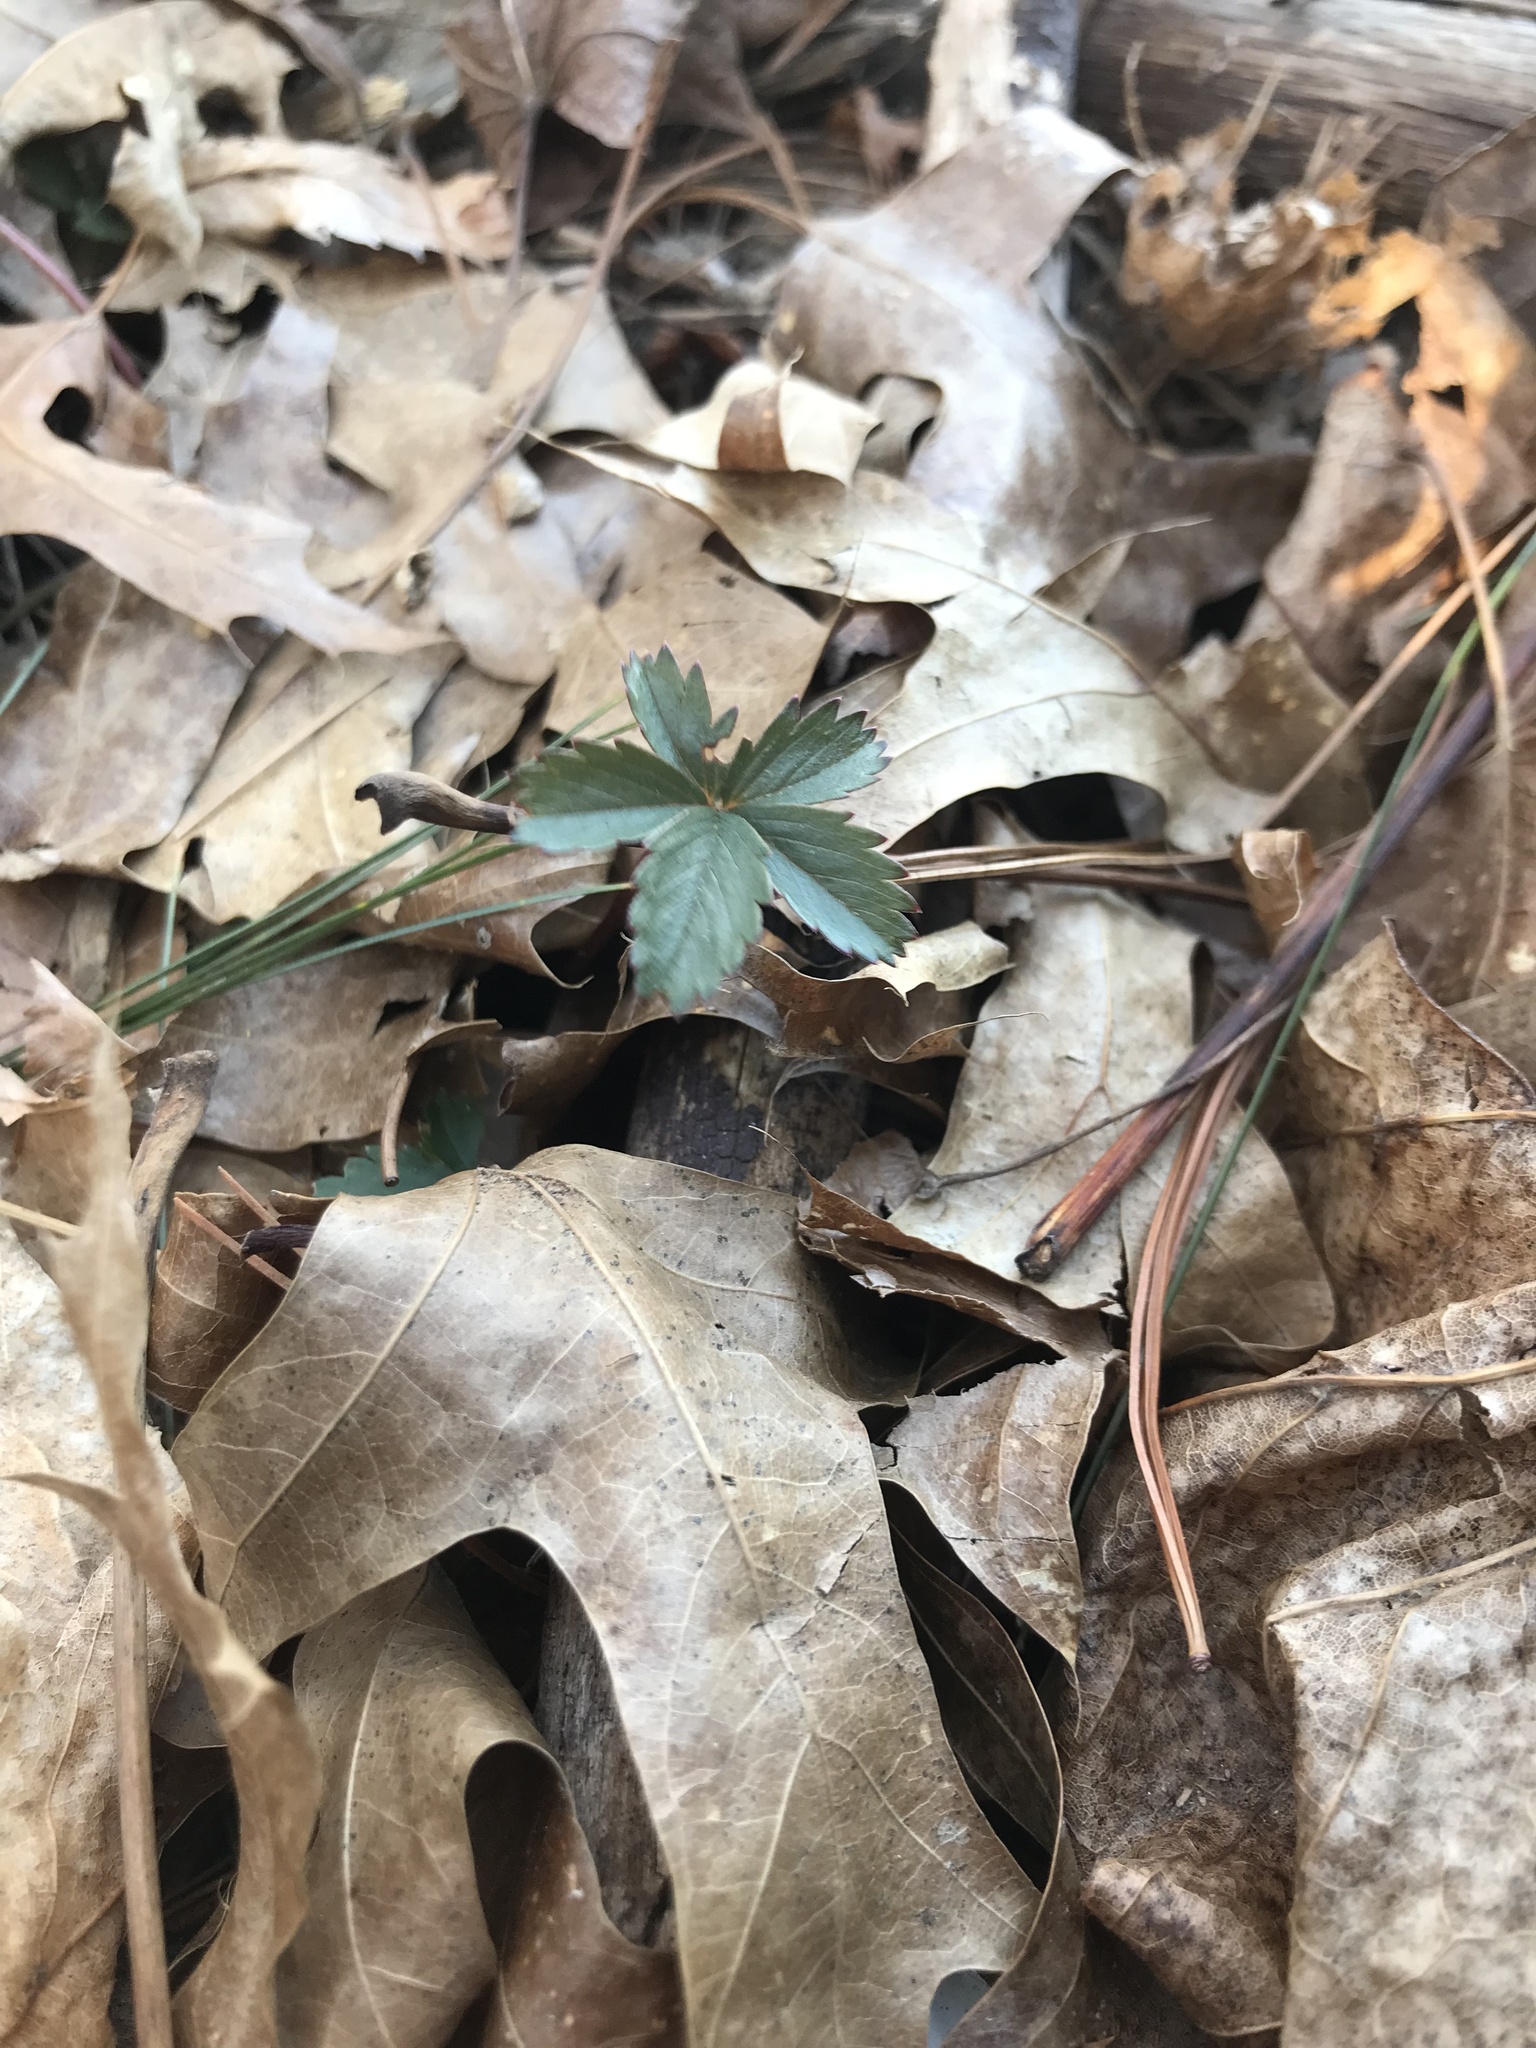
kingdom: Plantae
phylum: Tracheophyta
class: Magnoliopsida
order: Rosales
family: Rosaceae
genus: Potentilla
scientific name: Potentilla simplex
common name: Old field cinquefoil
